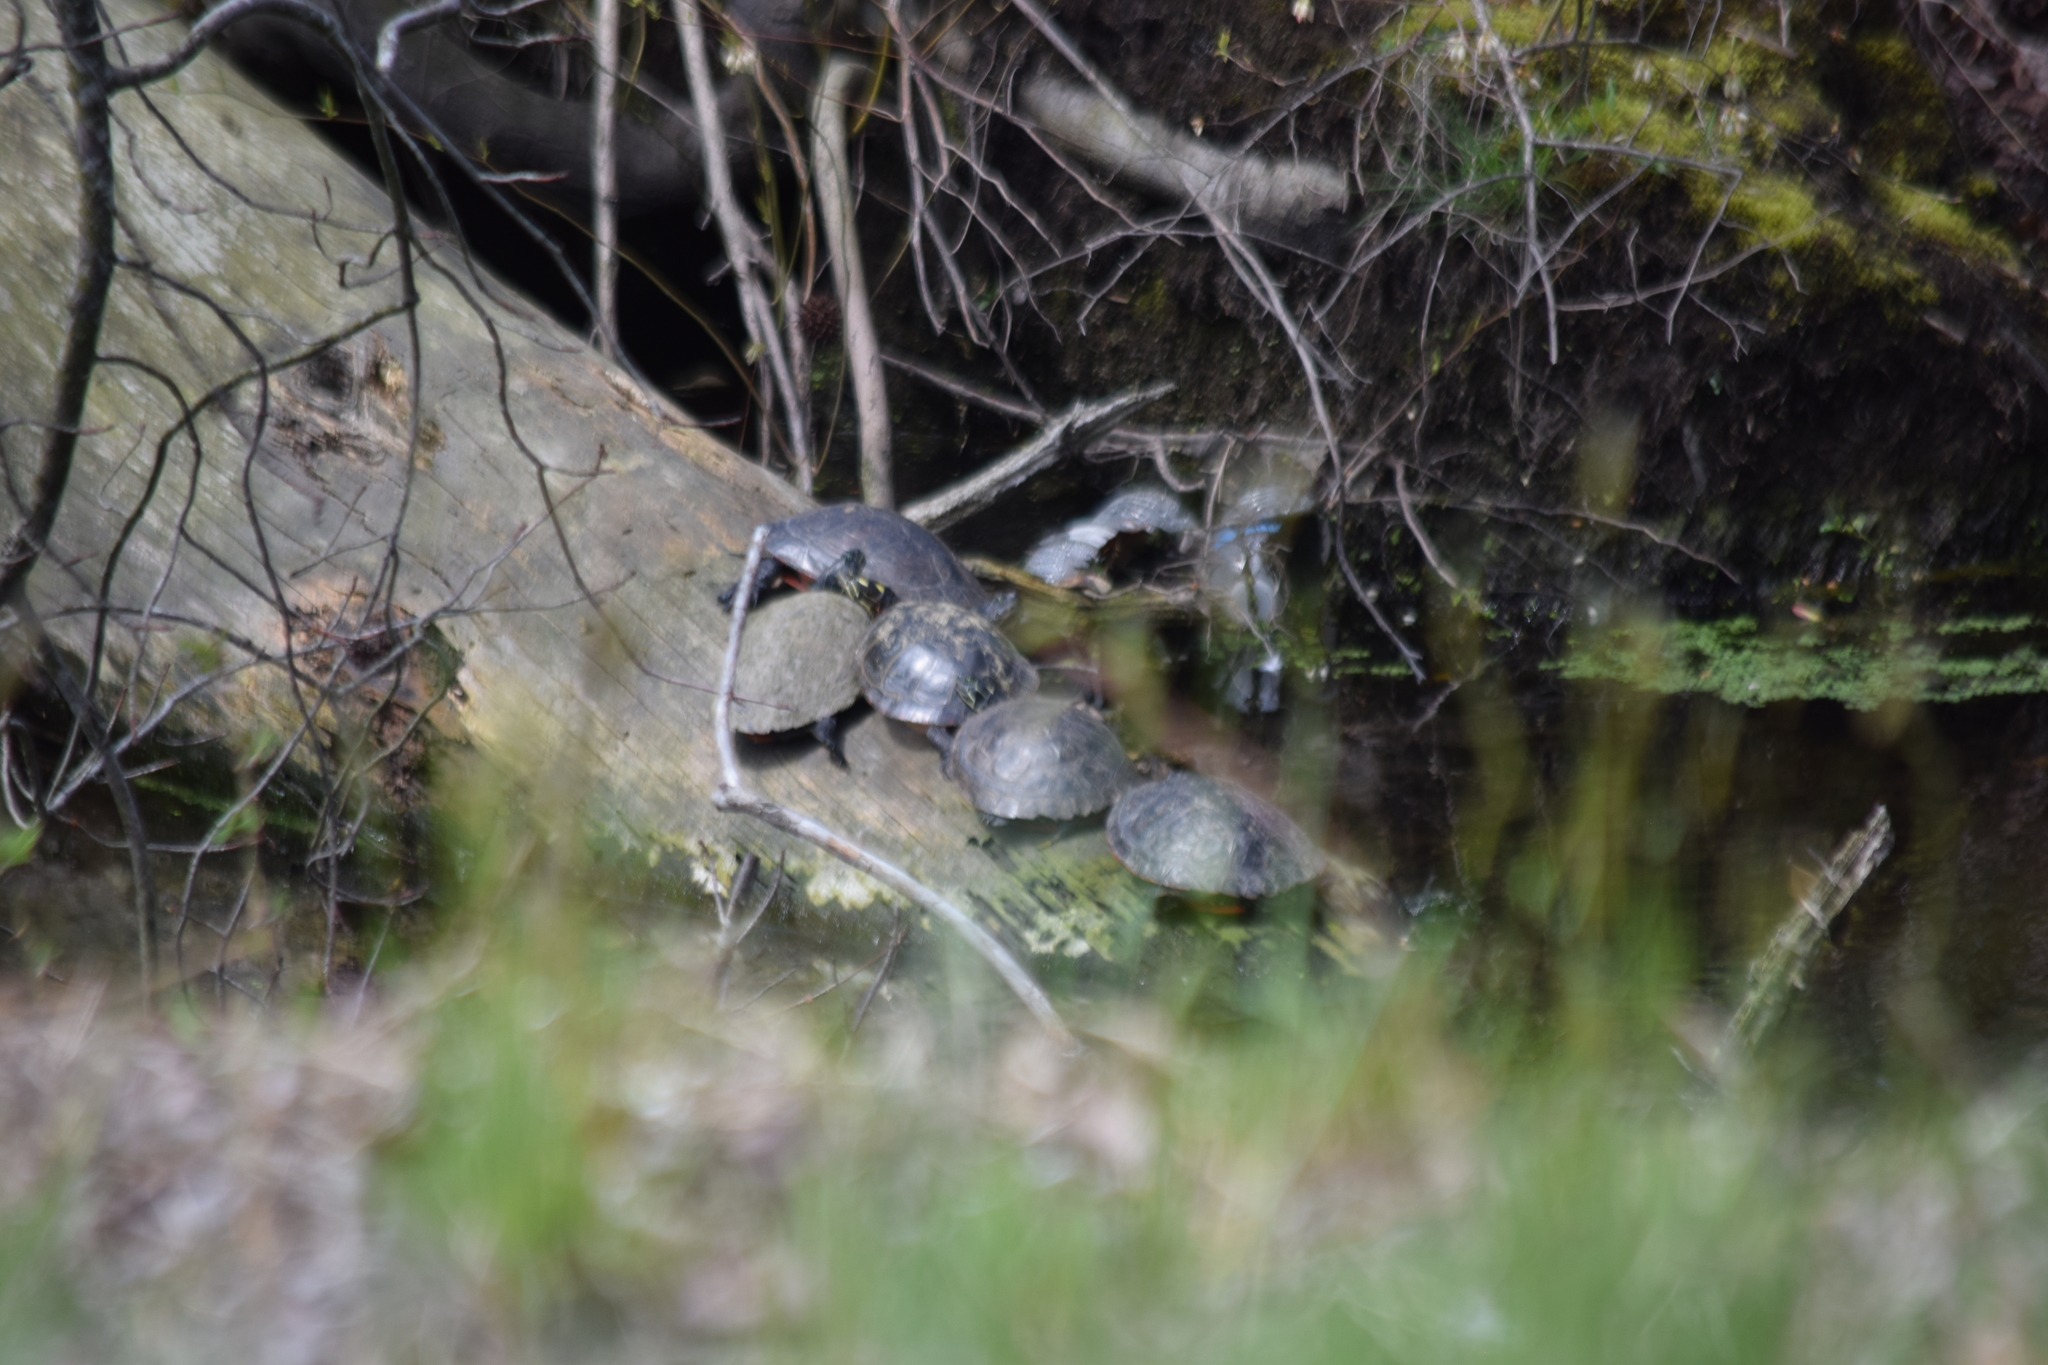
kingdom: Animalia
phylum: Chordata
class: Testudines
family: Emydidae
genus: Pseudemys
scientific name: Pseudemys rubriventris
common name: American red-bellied turtle
